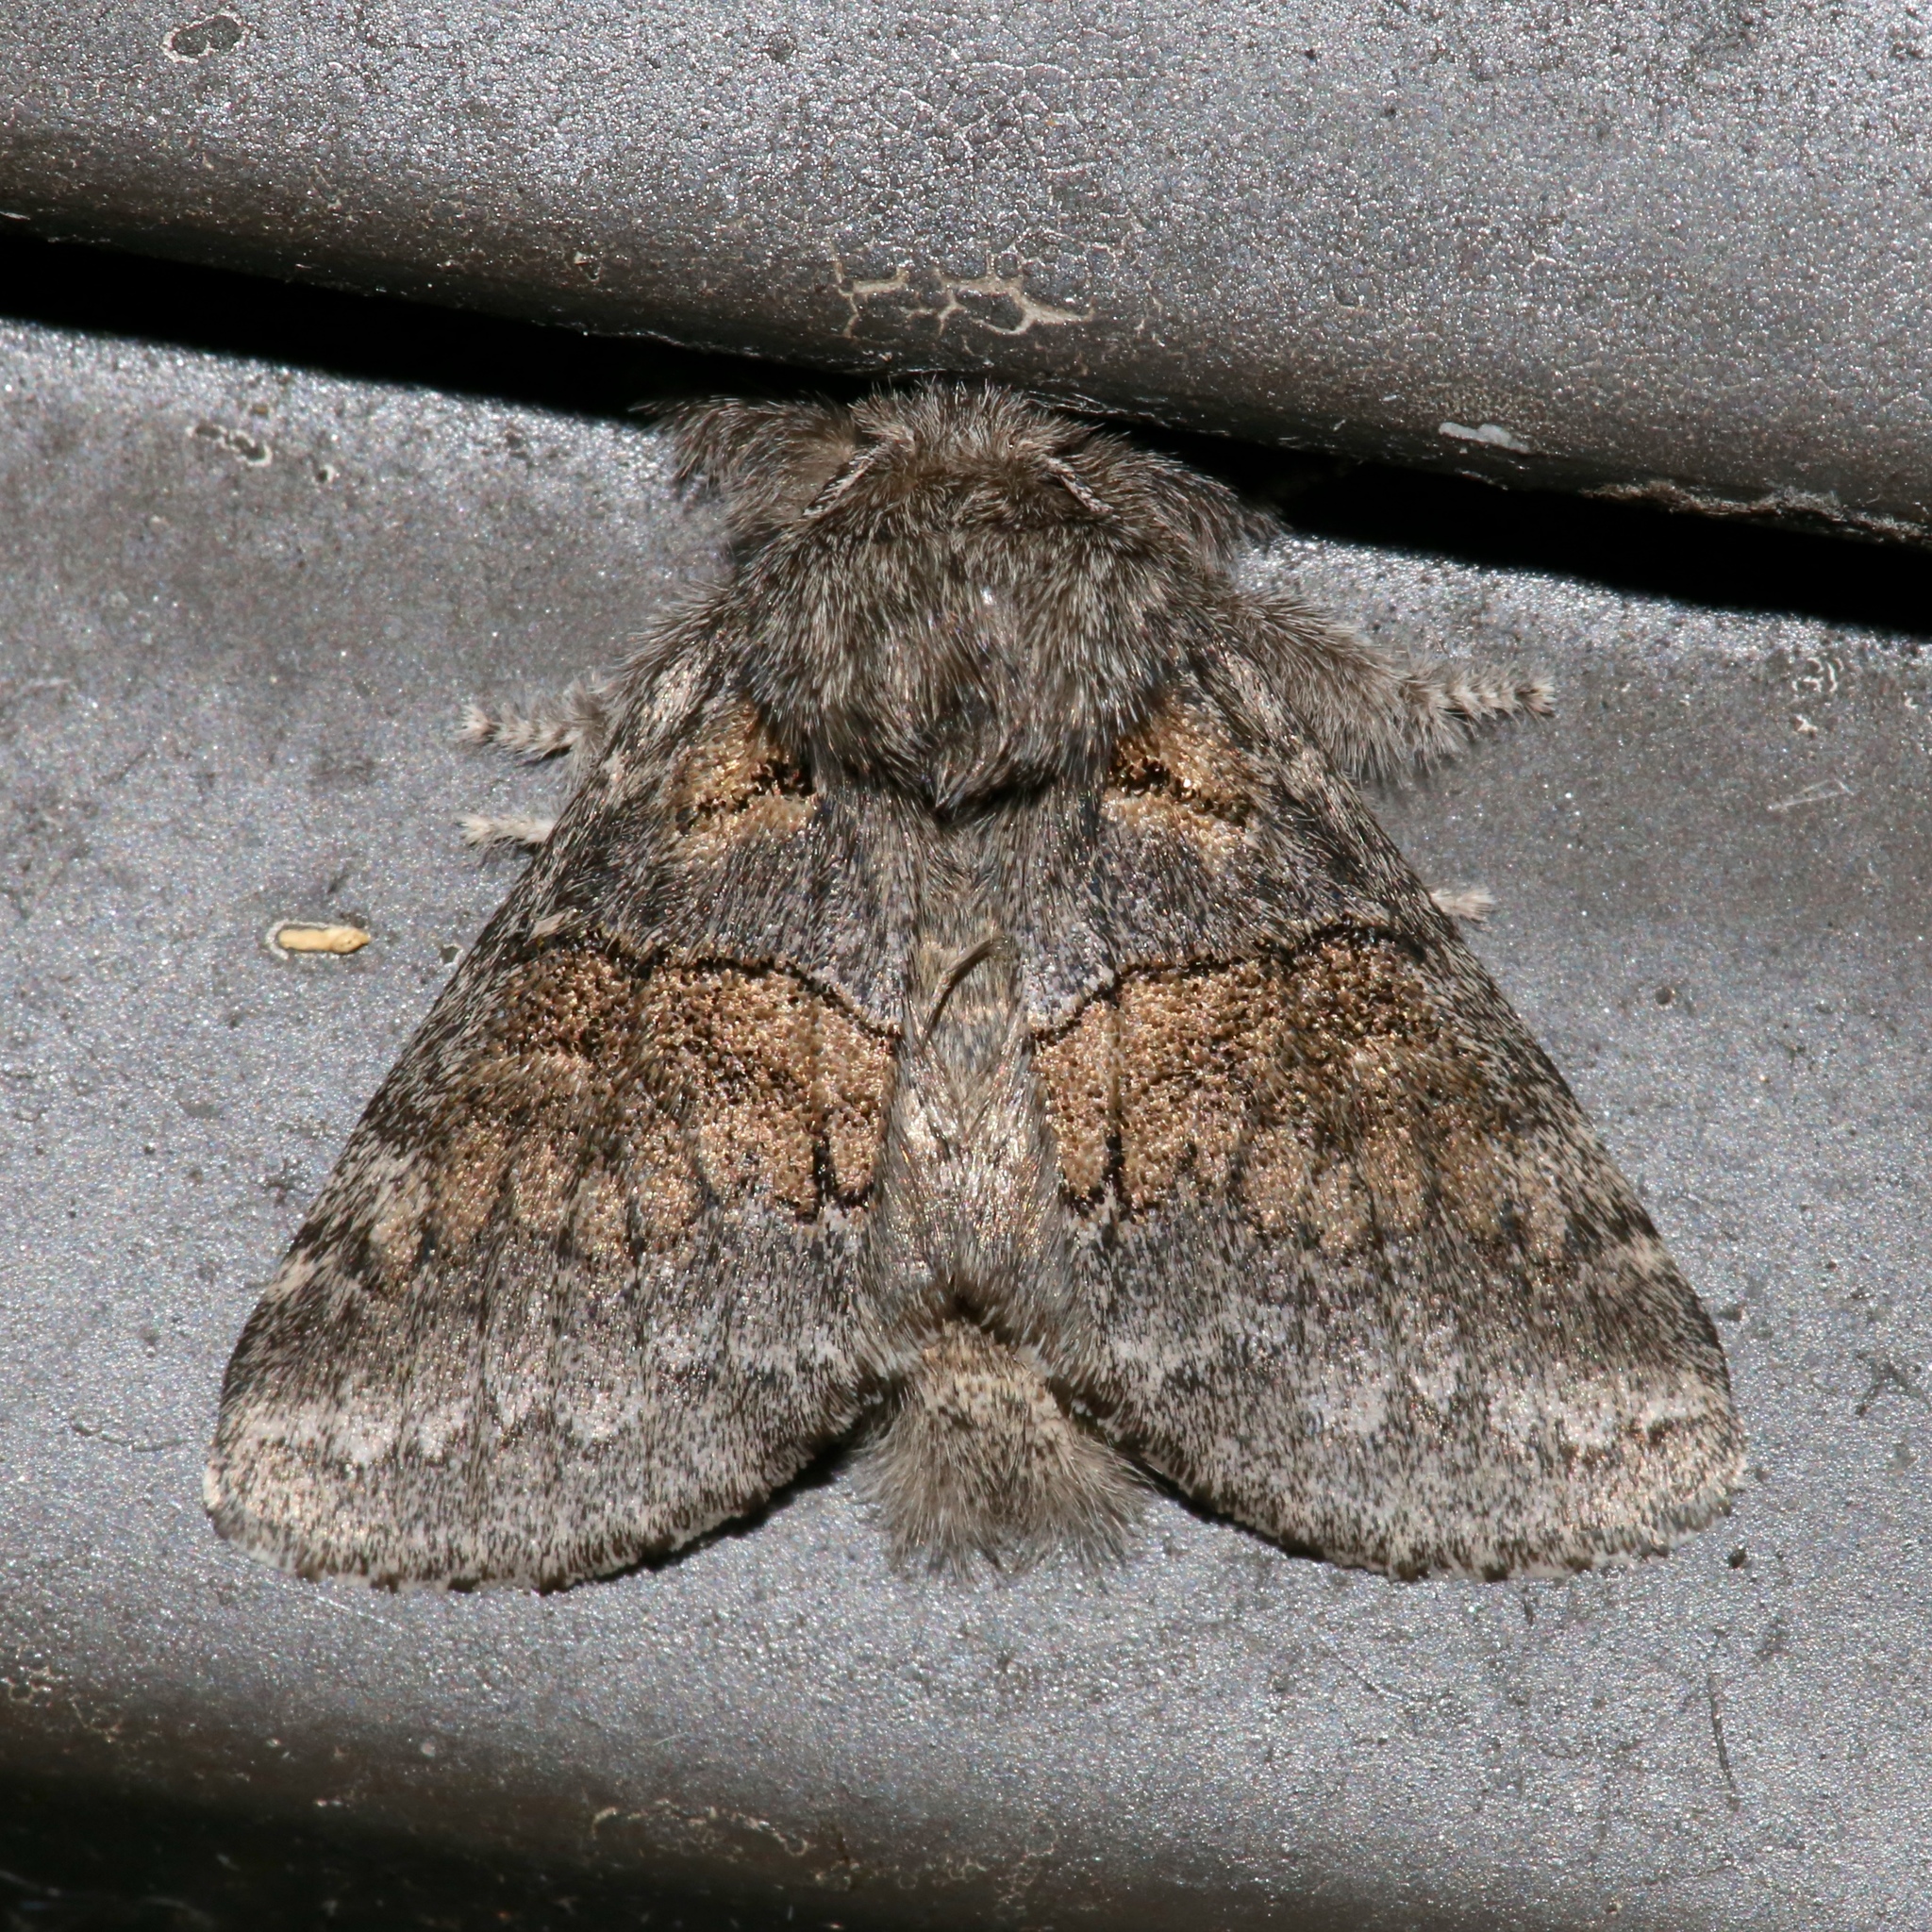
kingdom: Animalia
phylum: Arthropoda
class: Insecta
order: Lepidoptera
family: Notodontidae
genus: Gluphisia
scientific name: Gluphisia septentrionis
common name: Common gluphisia
